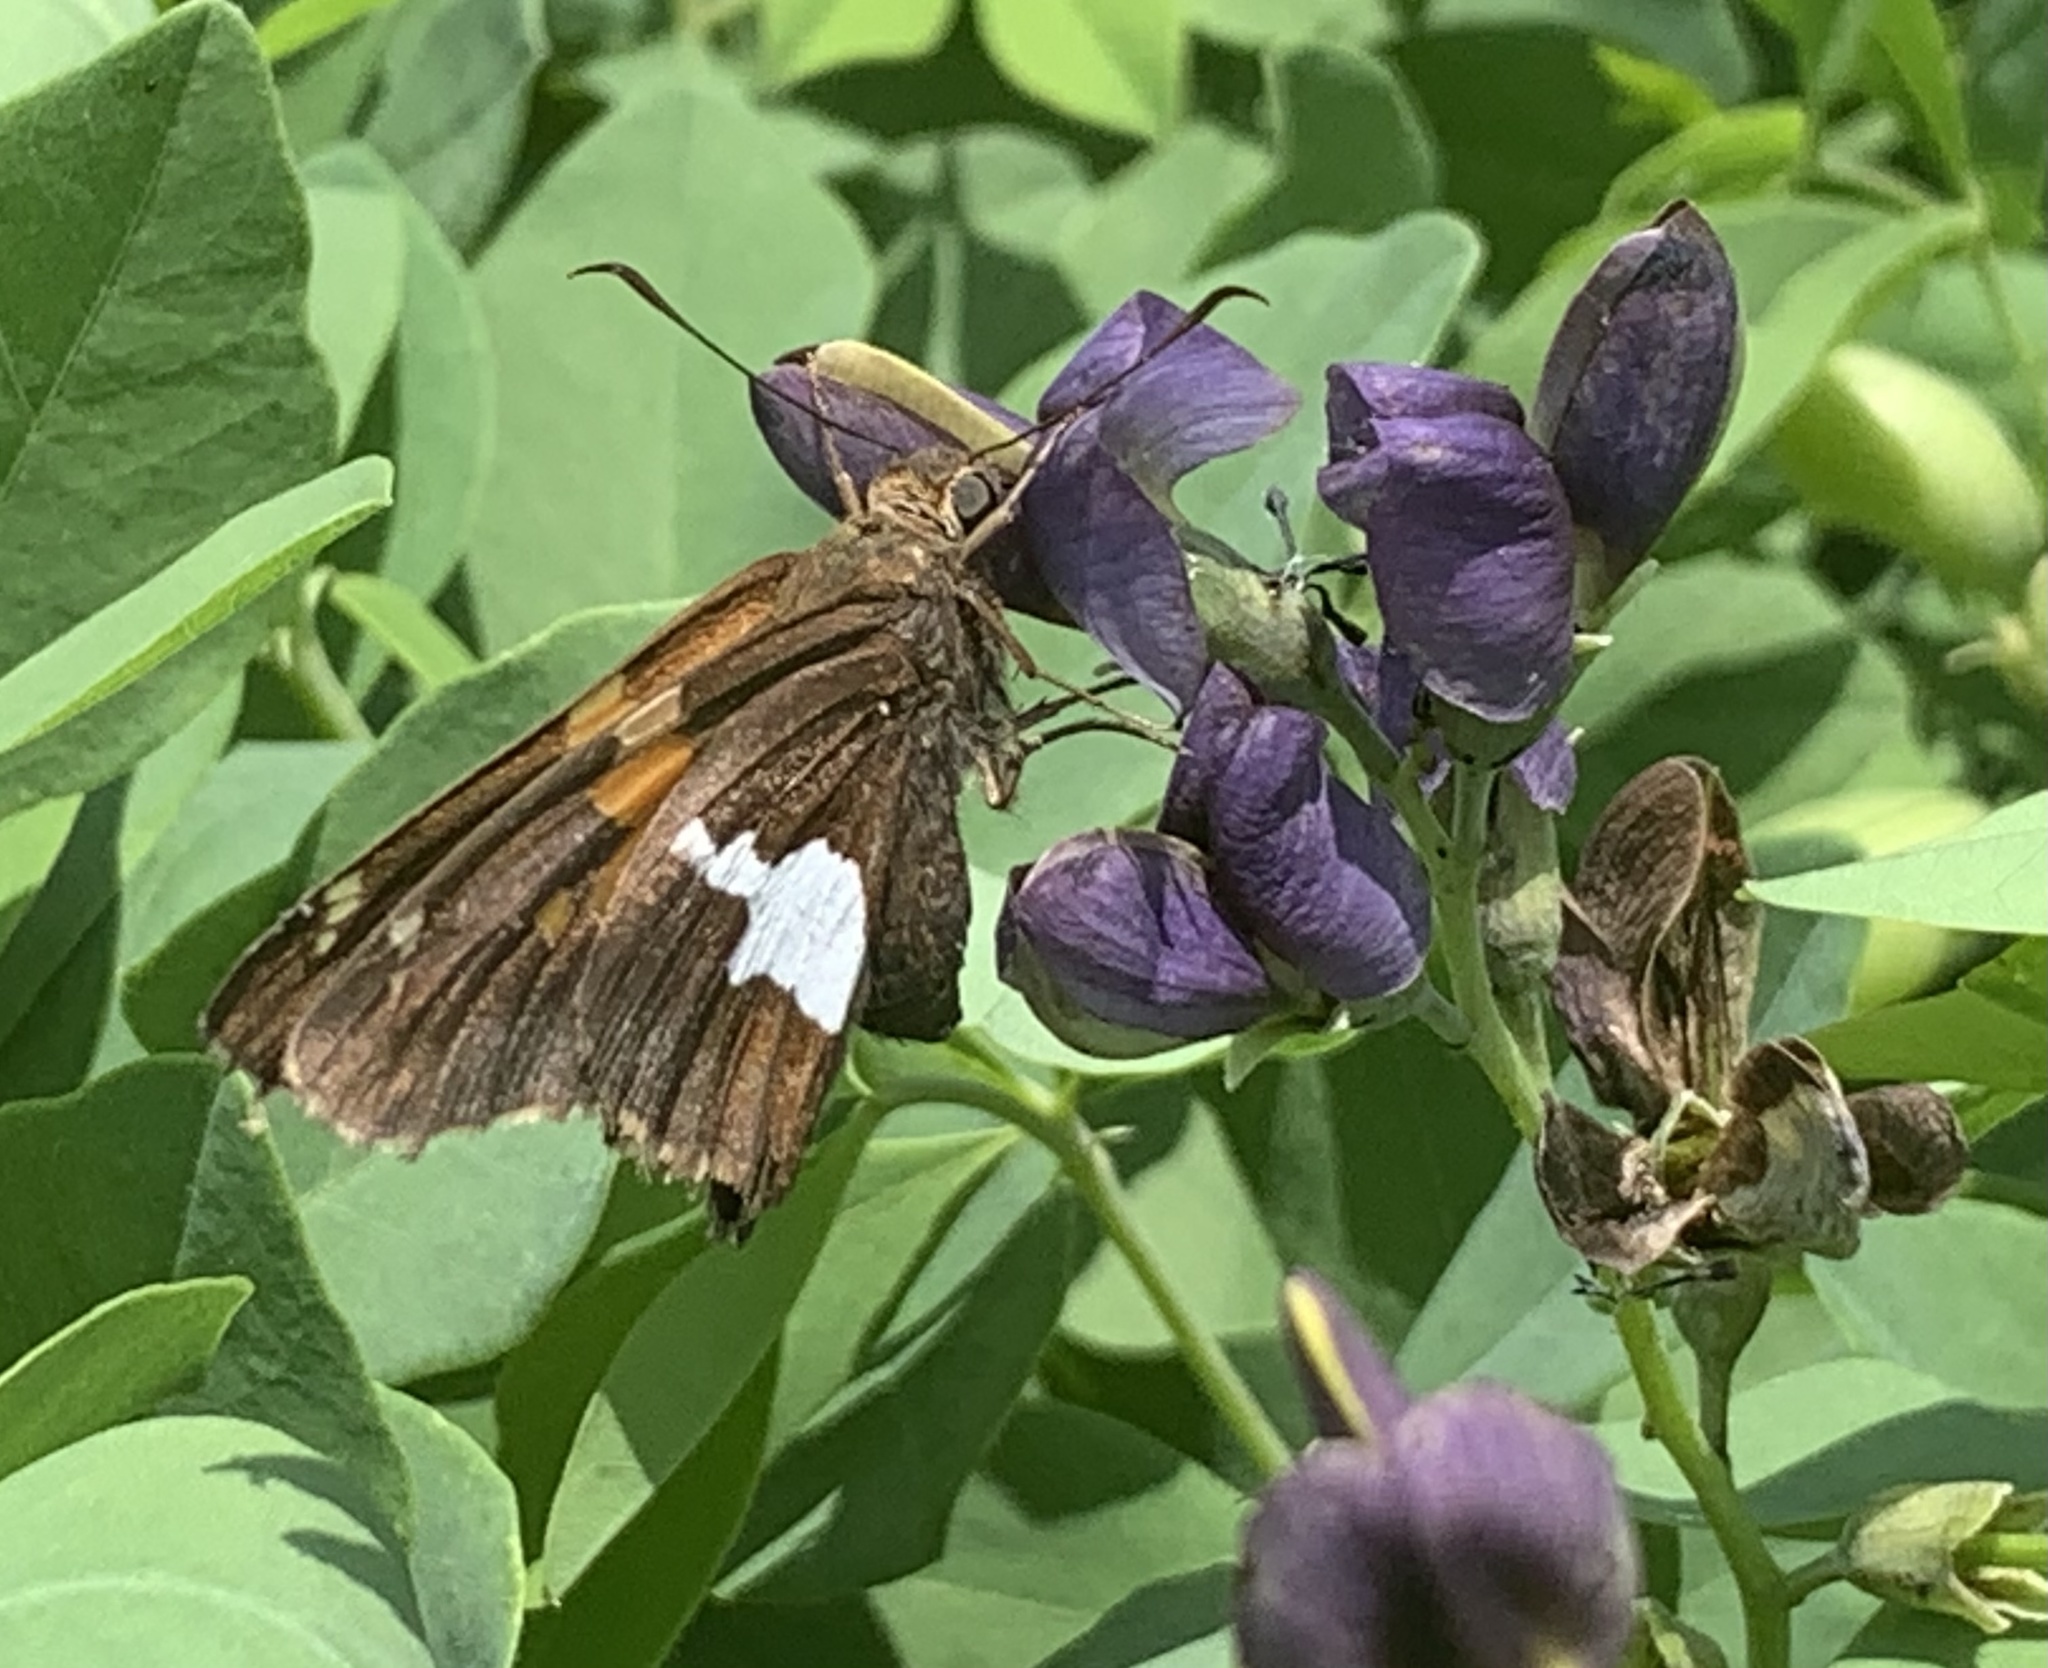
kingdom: Animalia
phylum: Arthropoda
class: Insecta
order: Lepidoptera
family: Hesperiidae
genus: Epargyreus
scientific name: Epargyreus clarus
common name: Silver-spotted skipper
